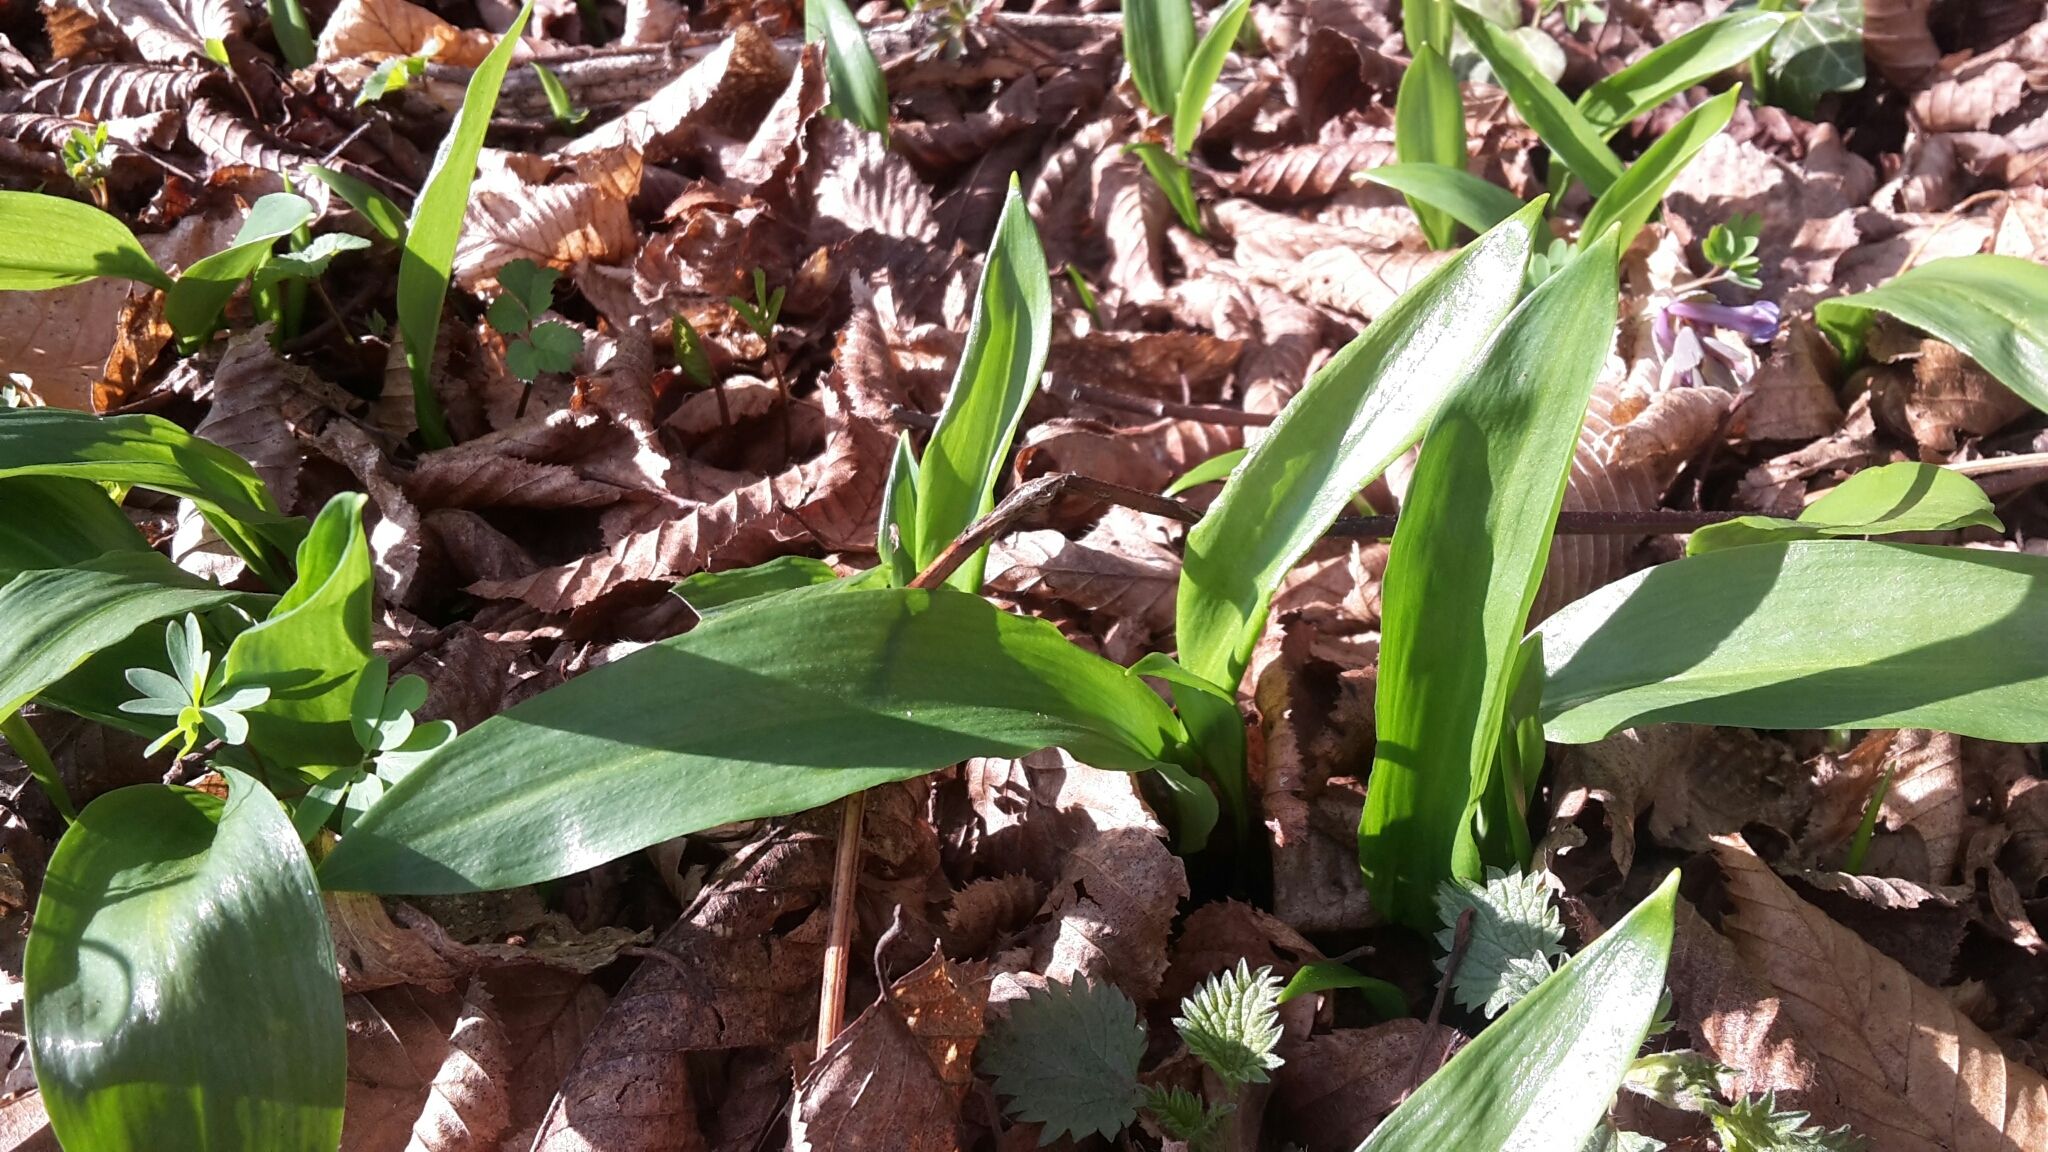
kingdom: Plantae
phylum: Tracheophyta
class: Liliopsida
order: Asparagales
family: Amaryllidaceae
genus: Allium
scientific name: Allium ursinum
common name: Ramsons
